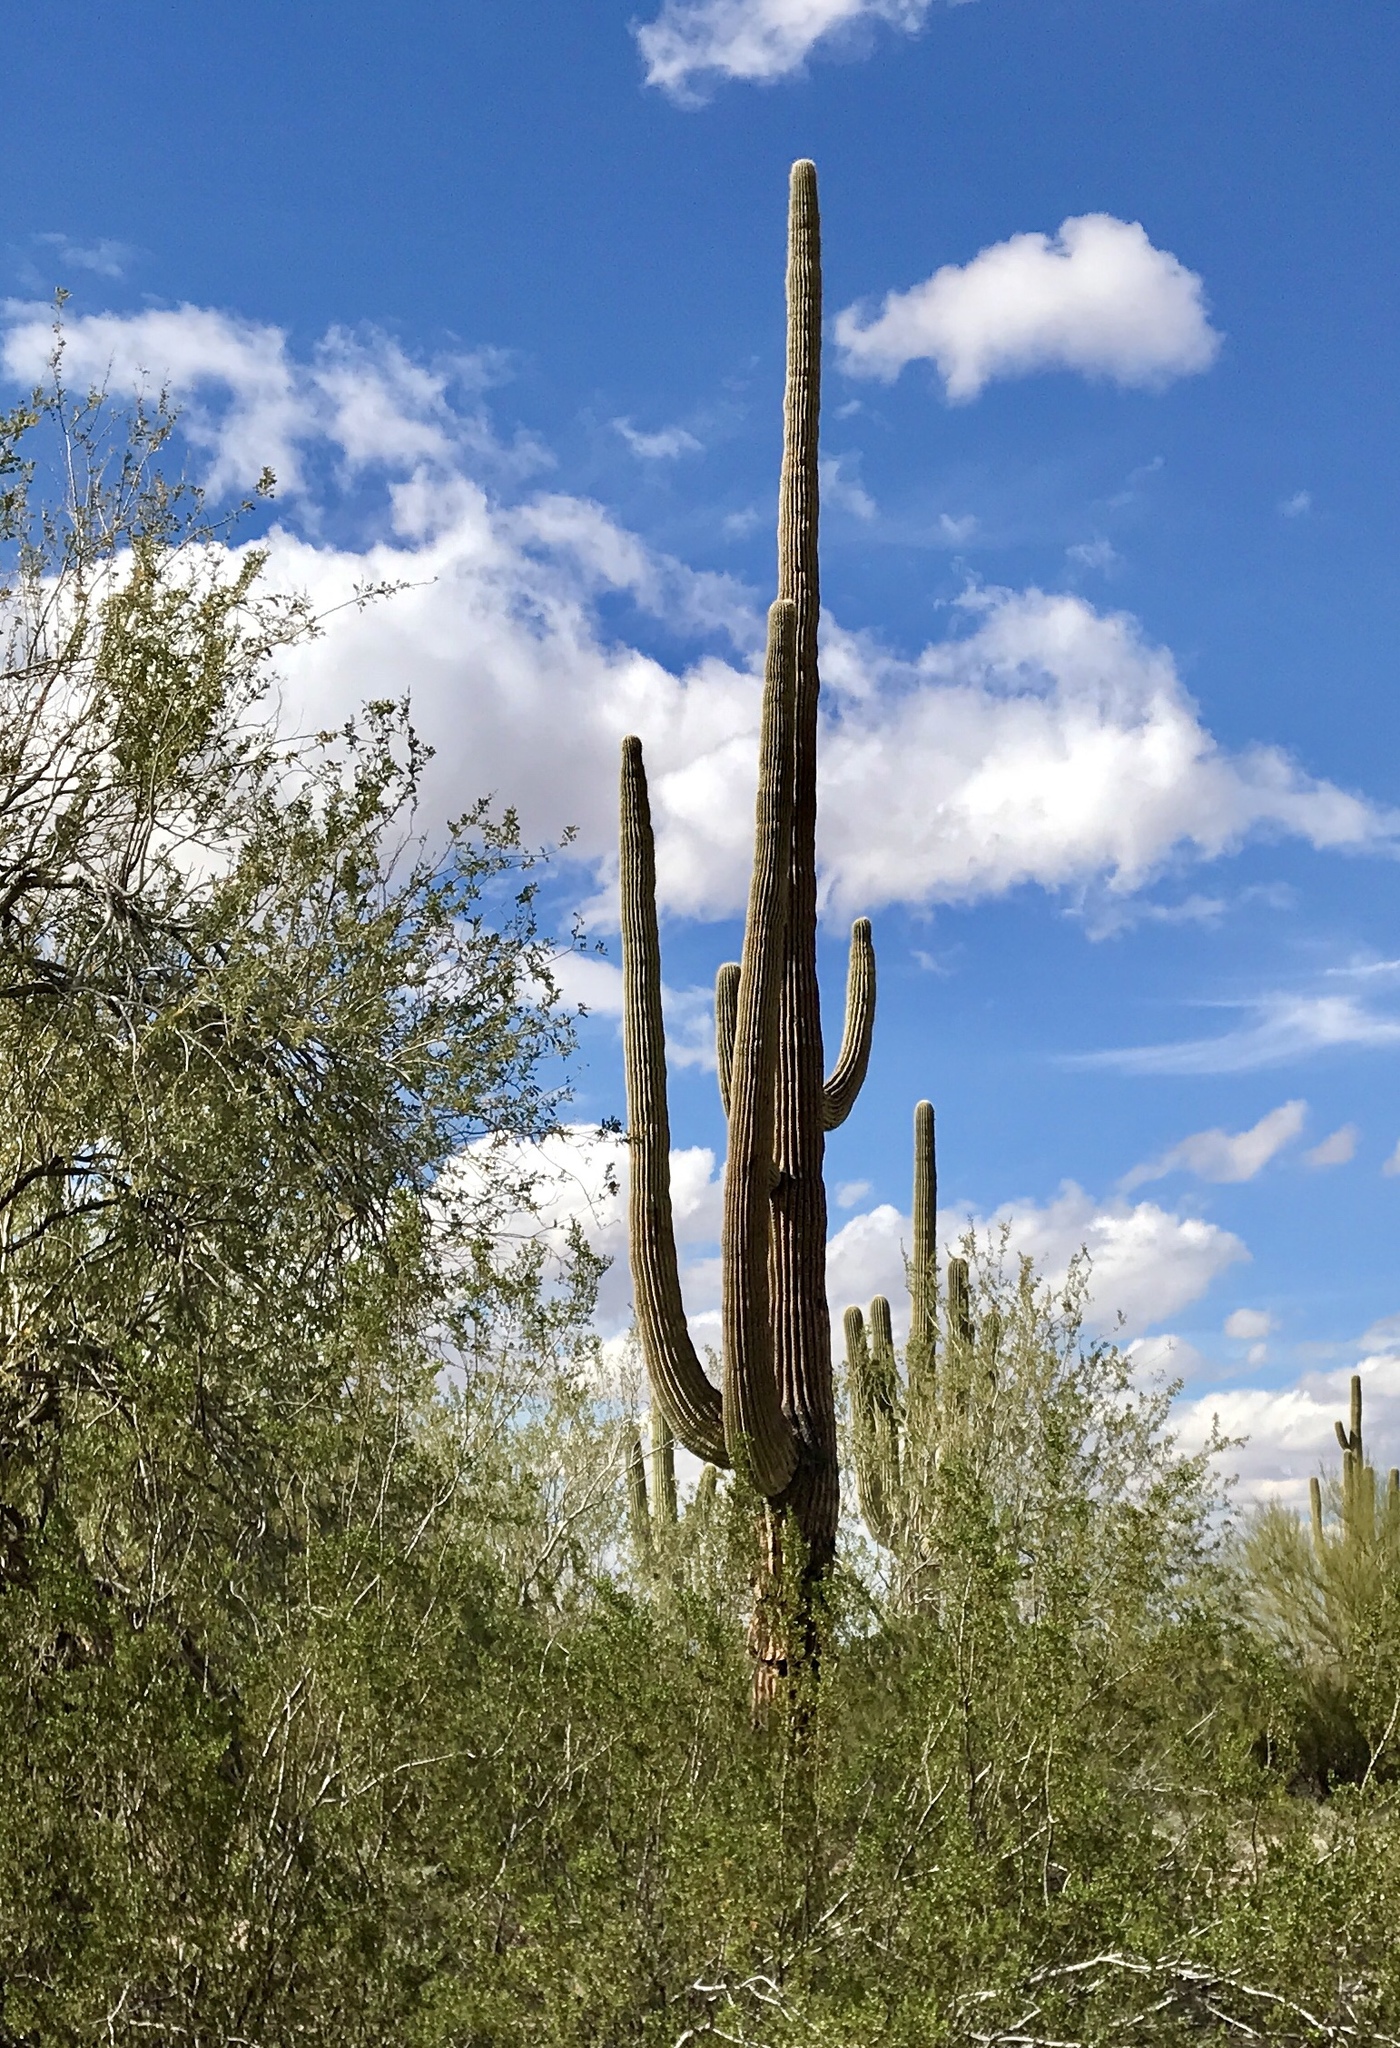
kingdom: Plantae
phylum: Tracheophyta
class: Magnoliopsida
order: Caryophyllales
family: Cactaceae
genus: Carnegiea
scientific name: Carnegiea gigantea
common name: Saguaro
